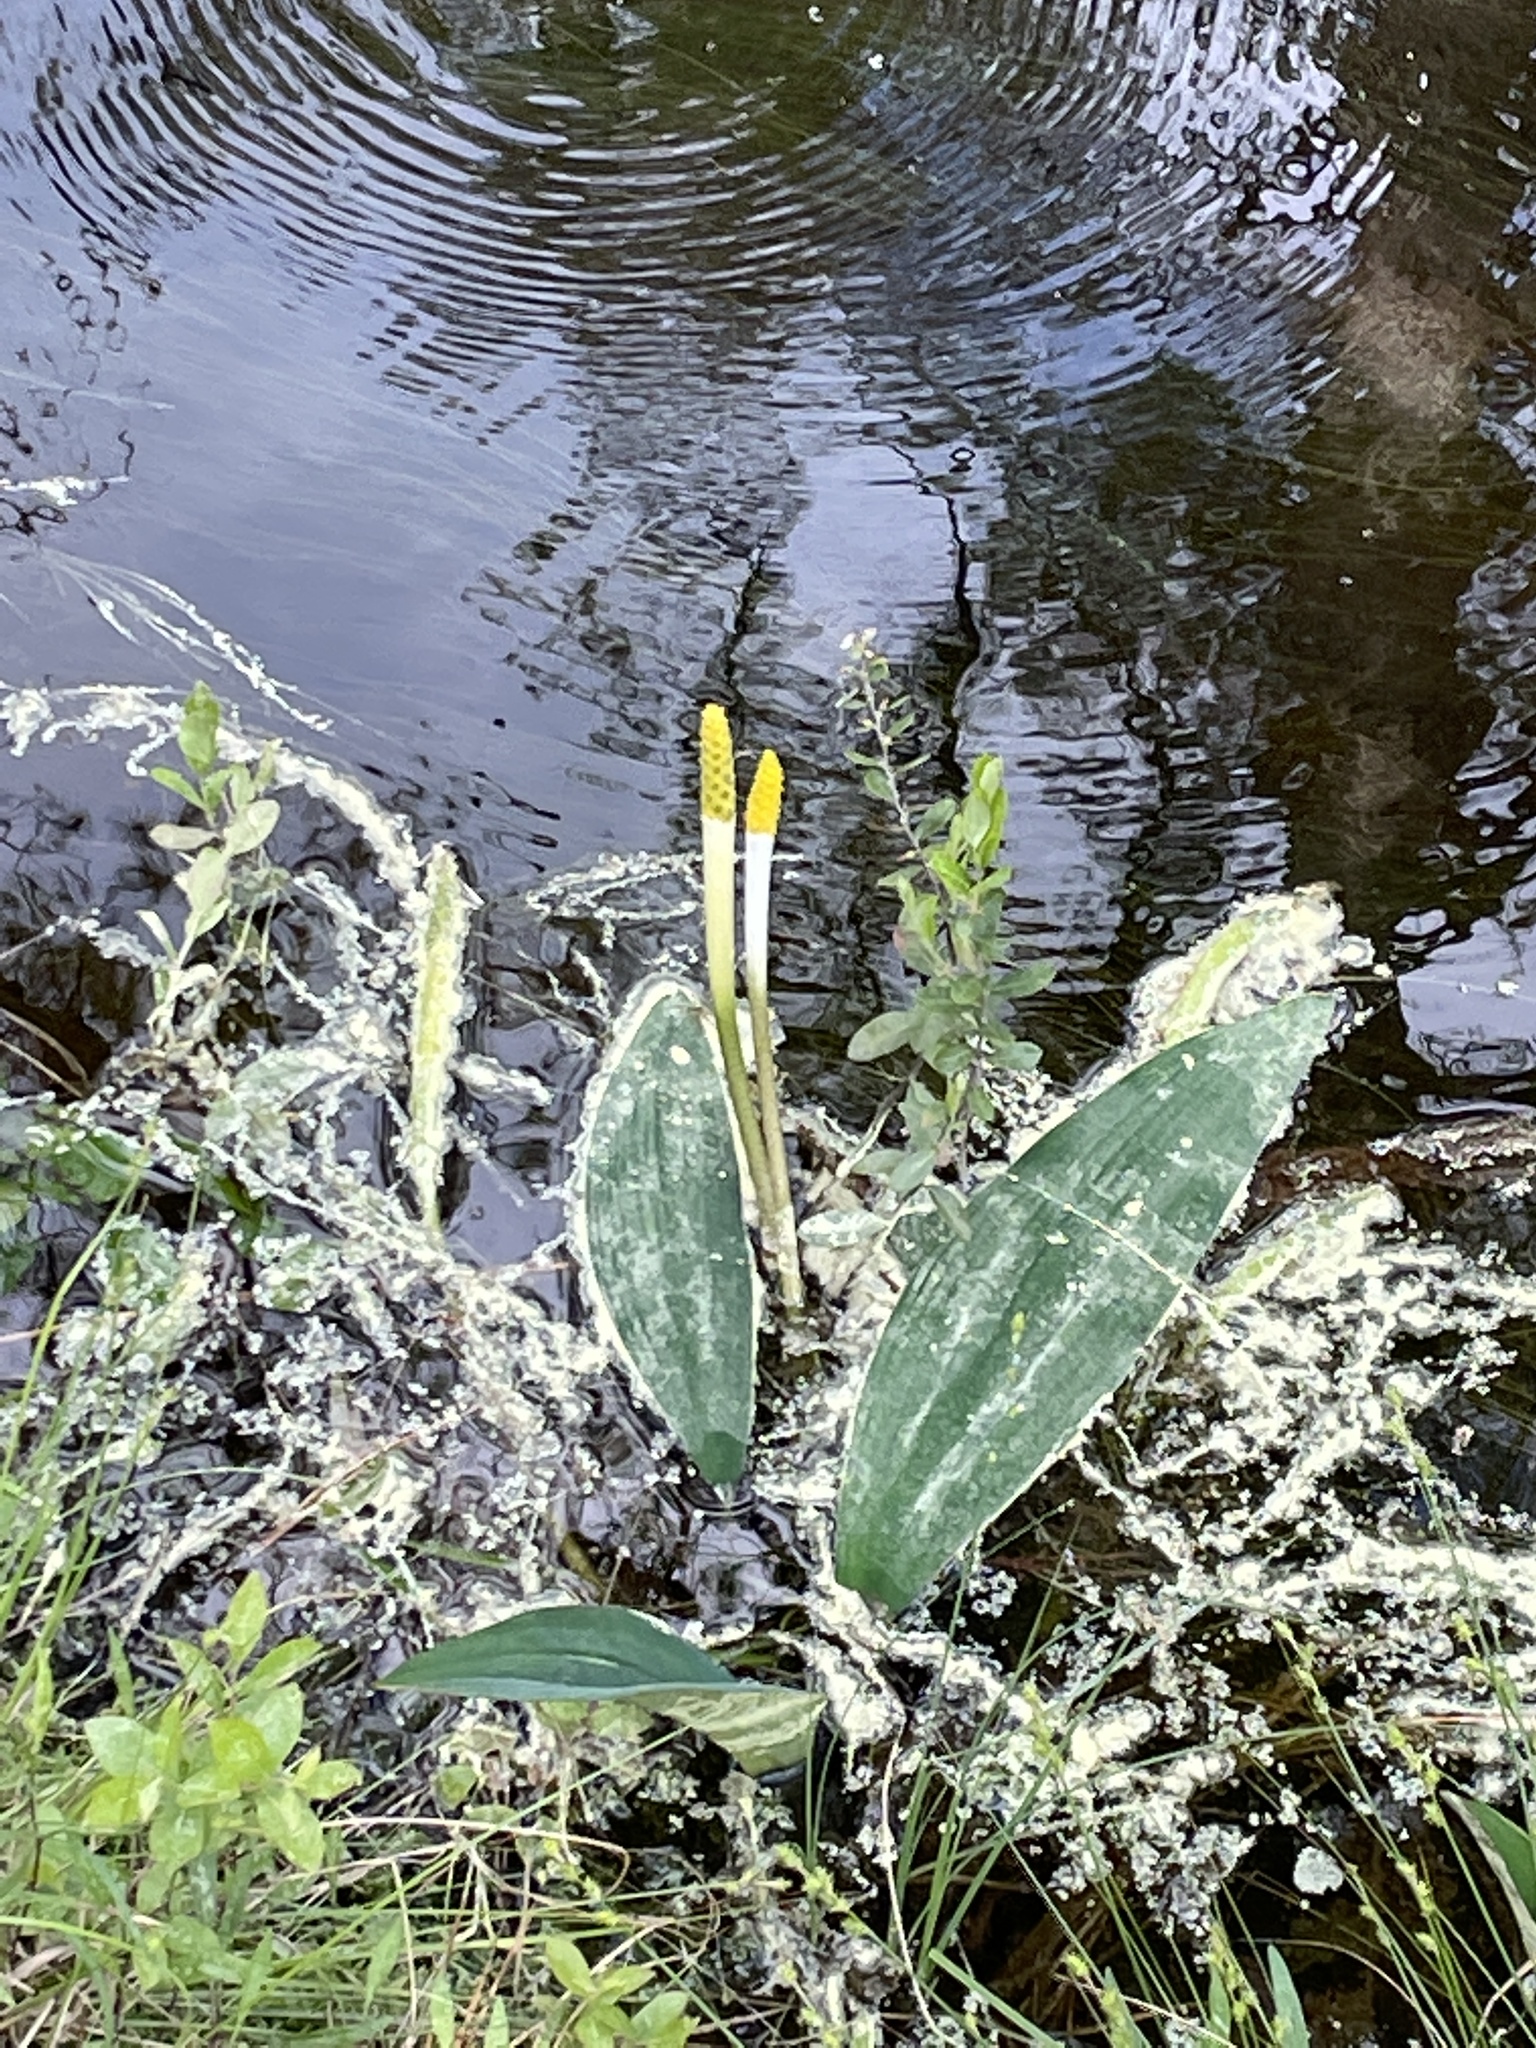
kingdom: Plantae
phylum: Tracheophyta
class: Liliopsida
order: Alismatales
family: Araceae
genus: Orontium
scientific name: Orontium aquaticum
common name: Golden-club
